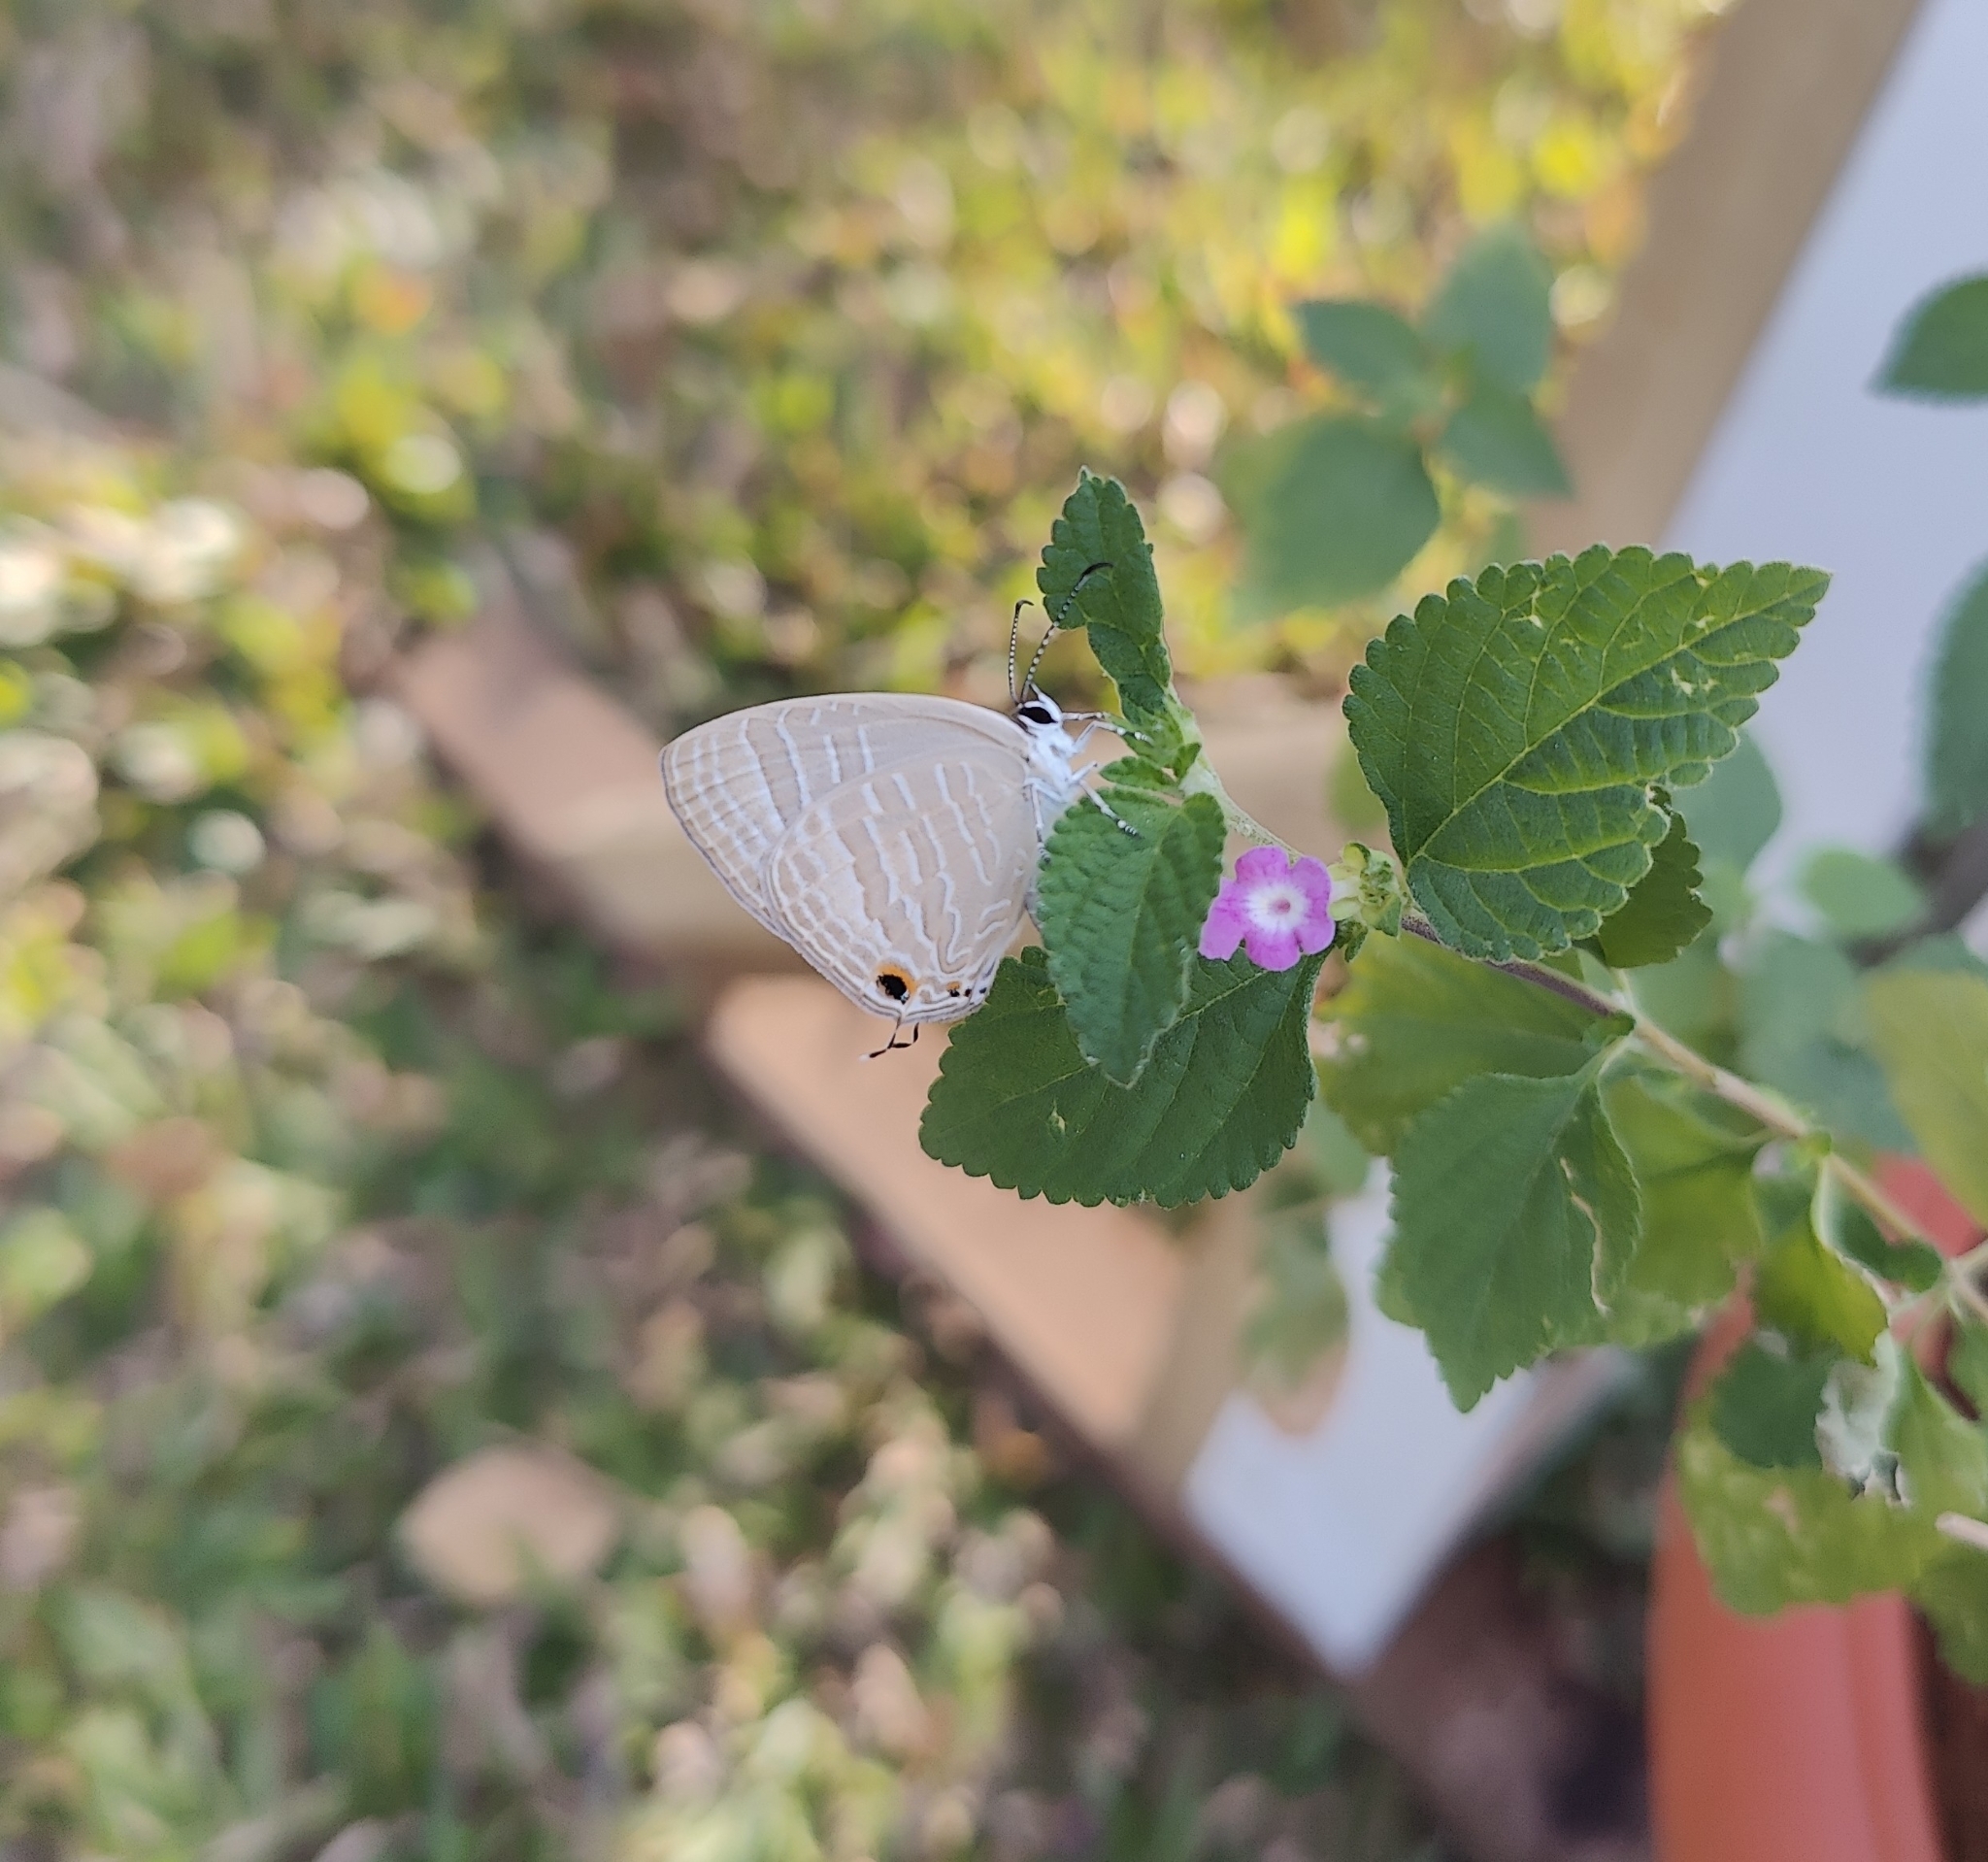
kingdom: Animalia
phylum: Arthropoda
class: Insecta
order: Lepidoptera
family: Lycaenidae
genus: Jamides
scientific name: Jamides celeno
